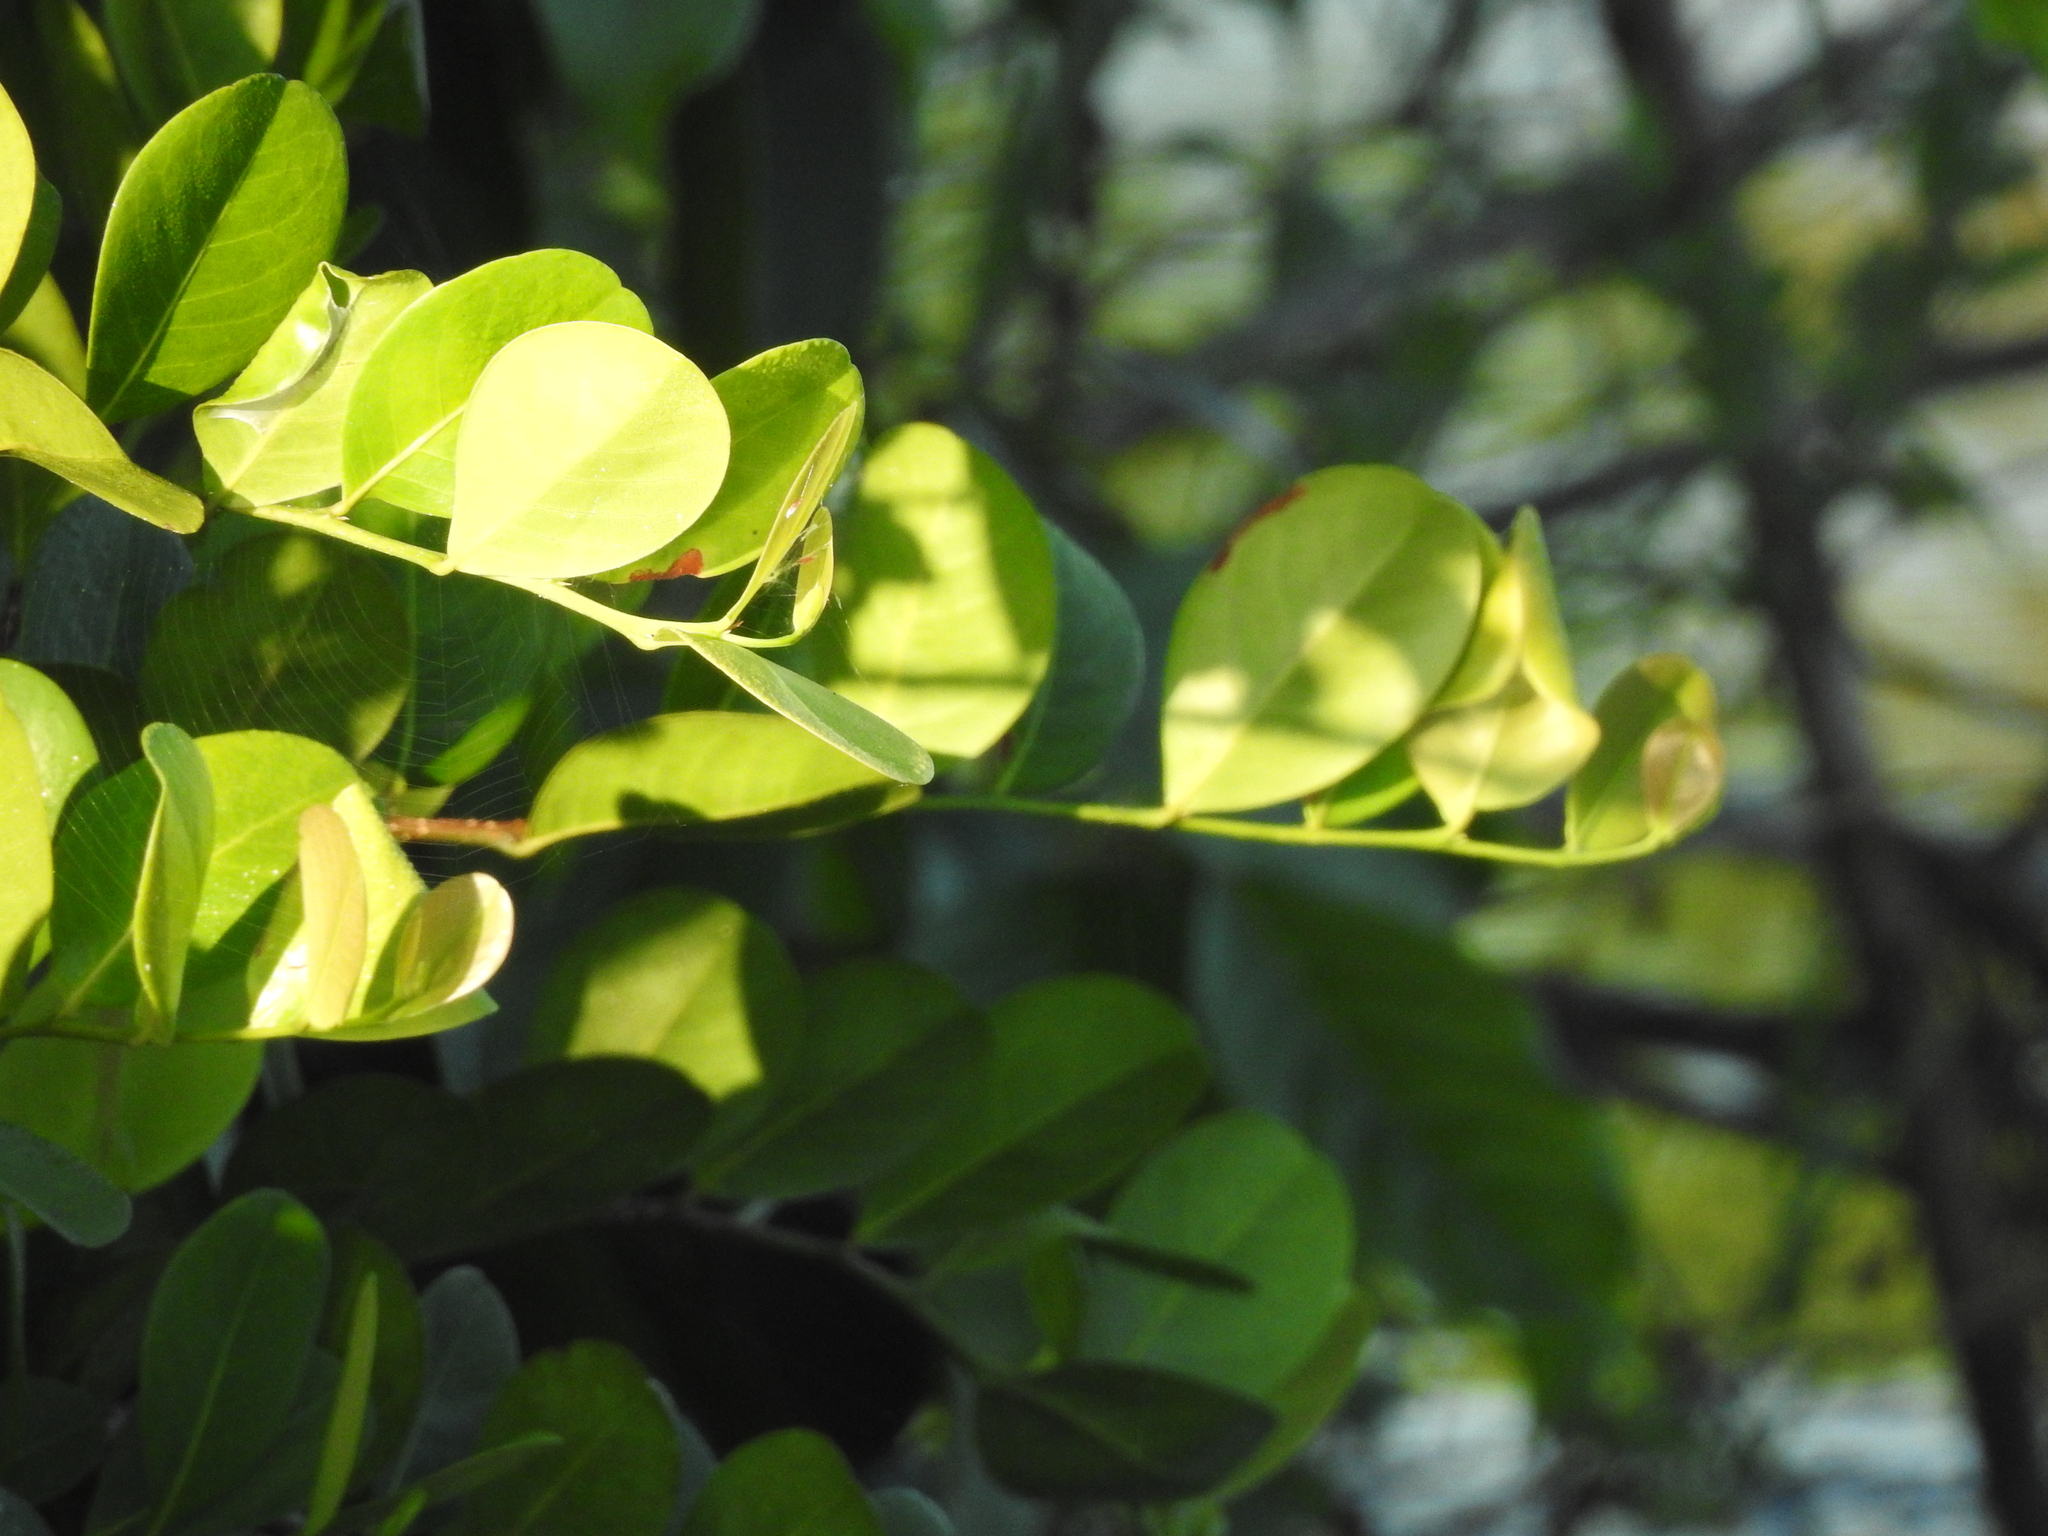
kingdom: Plantae
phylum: Tracheophyta
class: Magnoliopsida
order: Malpighiales
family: Chrysobalanaceae
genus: Chrysobalanus
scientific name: Chrysobalanus icaco
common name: Coco plum
